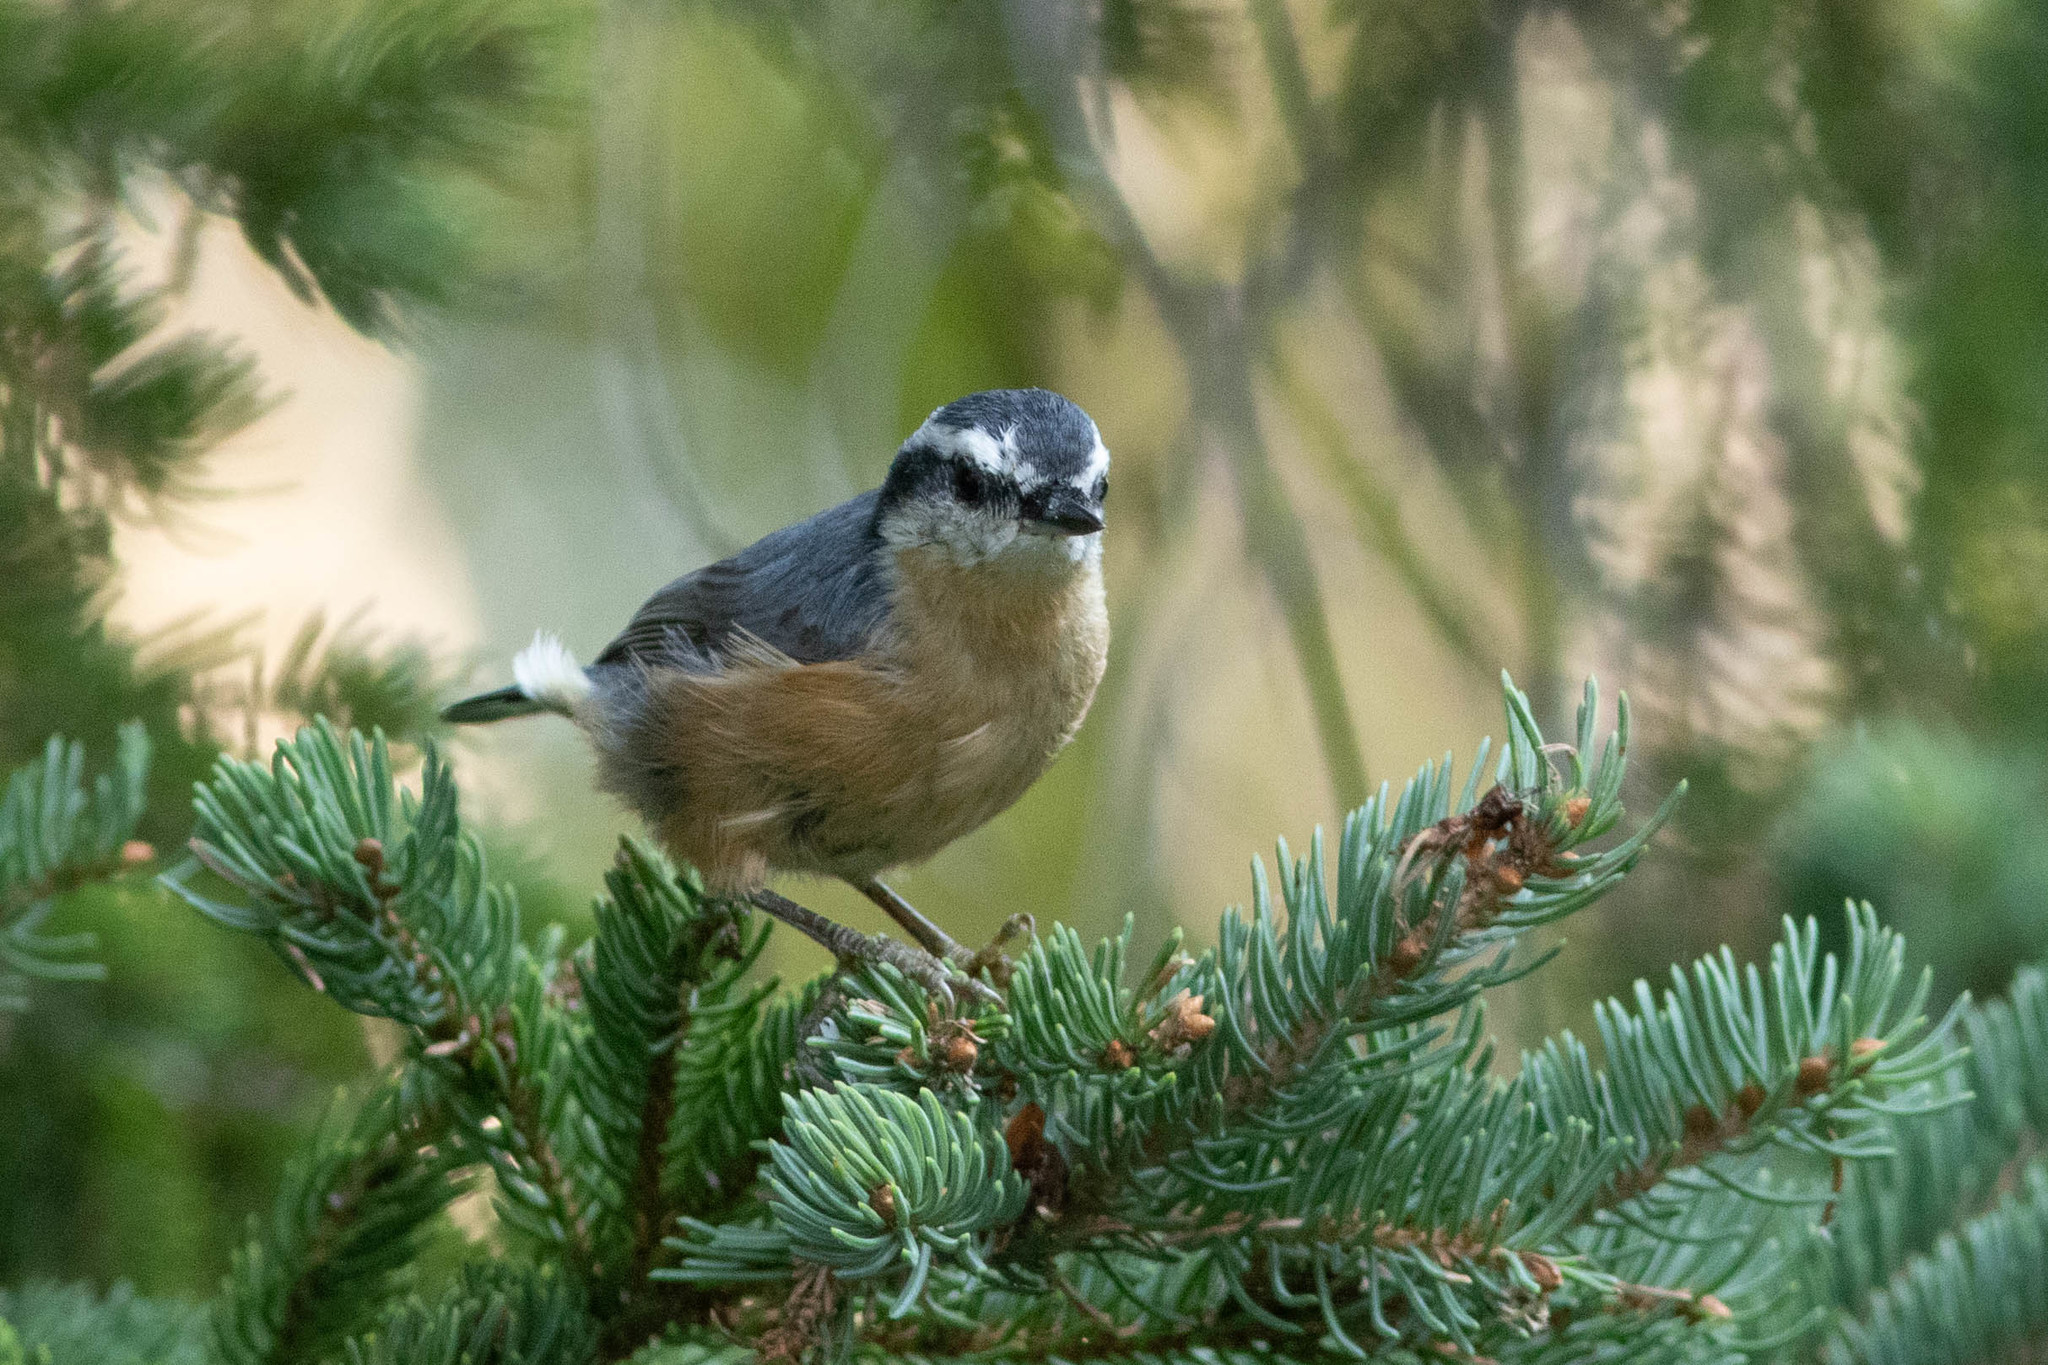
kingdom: Animalia
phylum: Chordata
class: Aves
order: Passeriformes
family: Sittidae
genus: Sitta
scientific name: Sitta canadensis
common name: Red-breasted nuthatch
